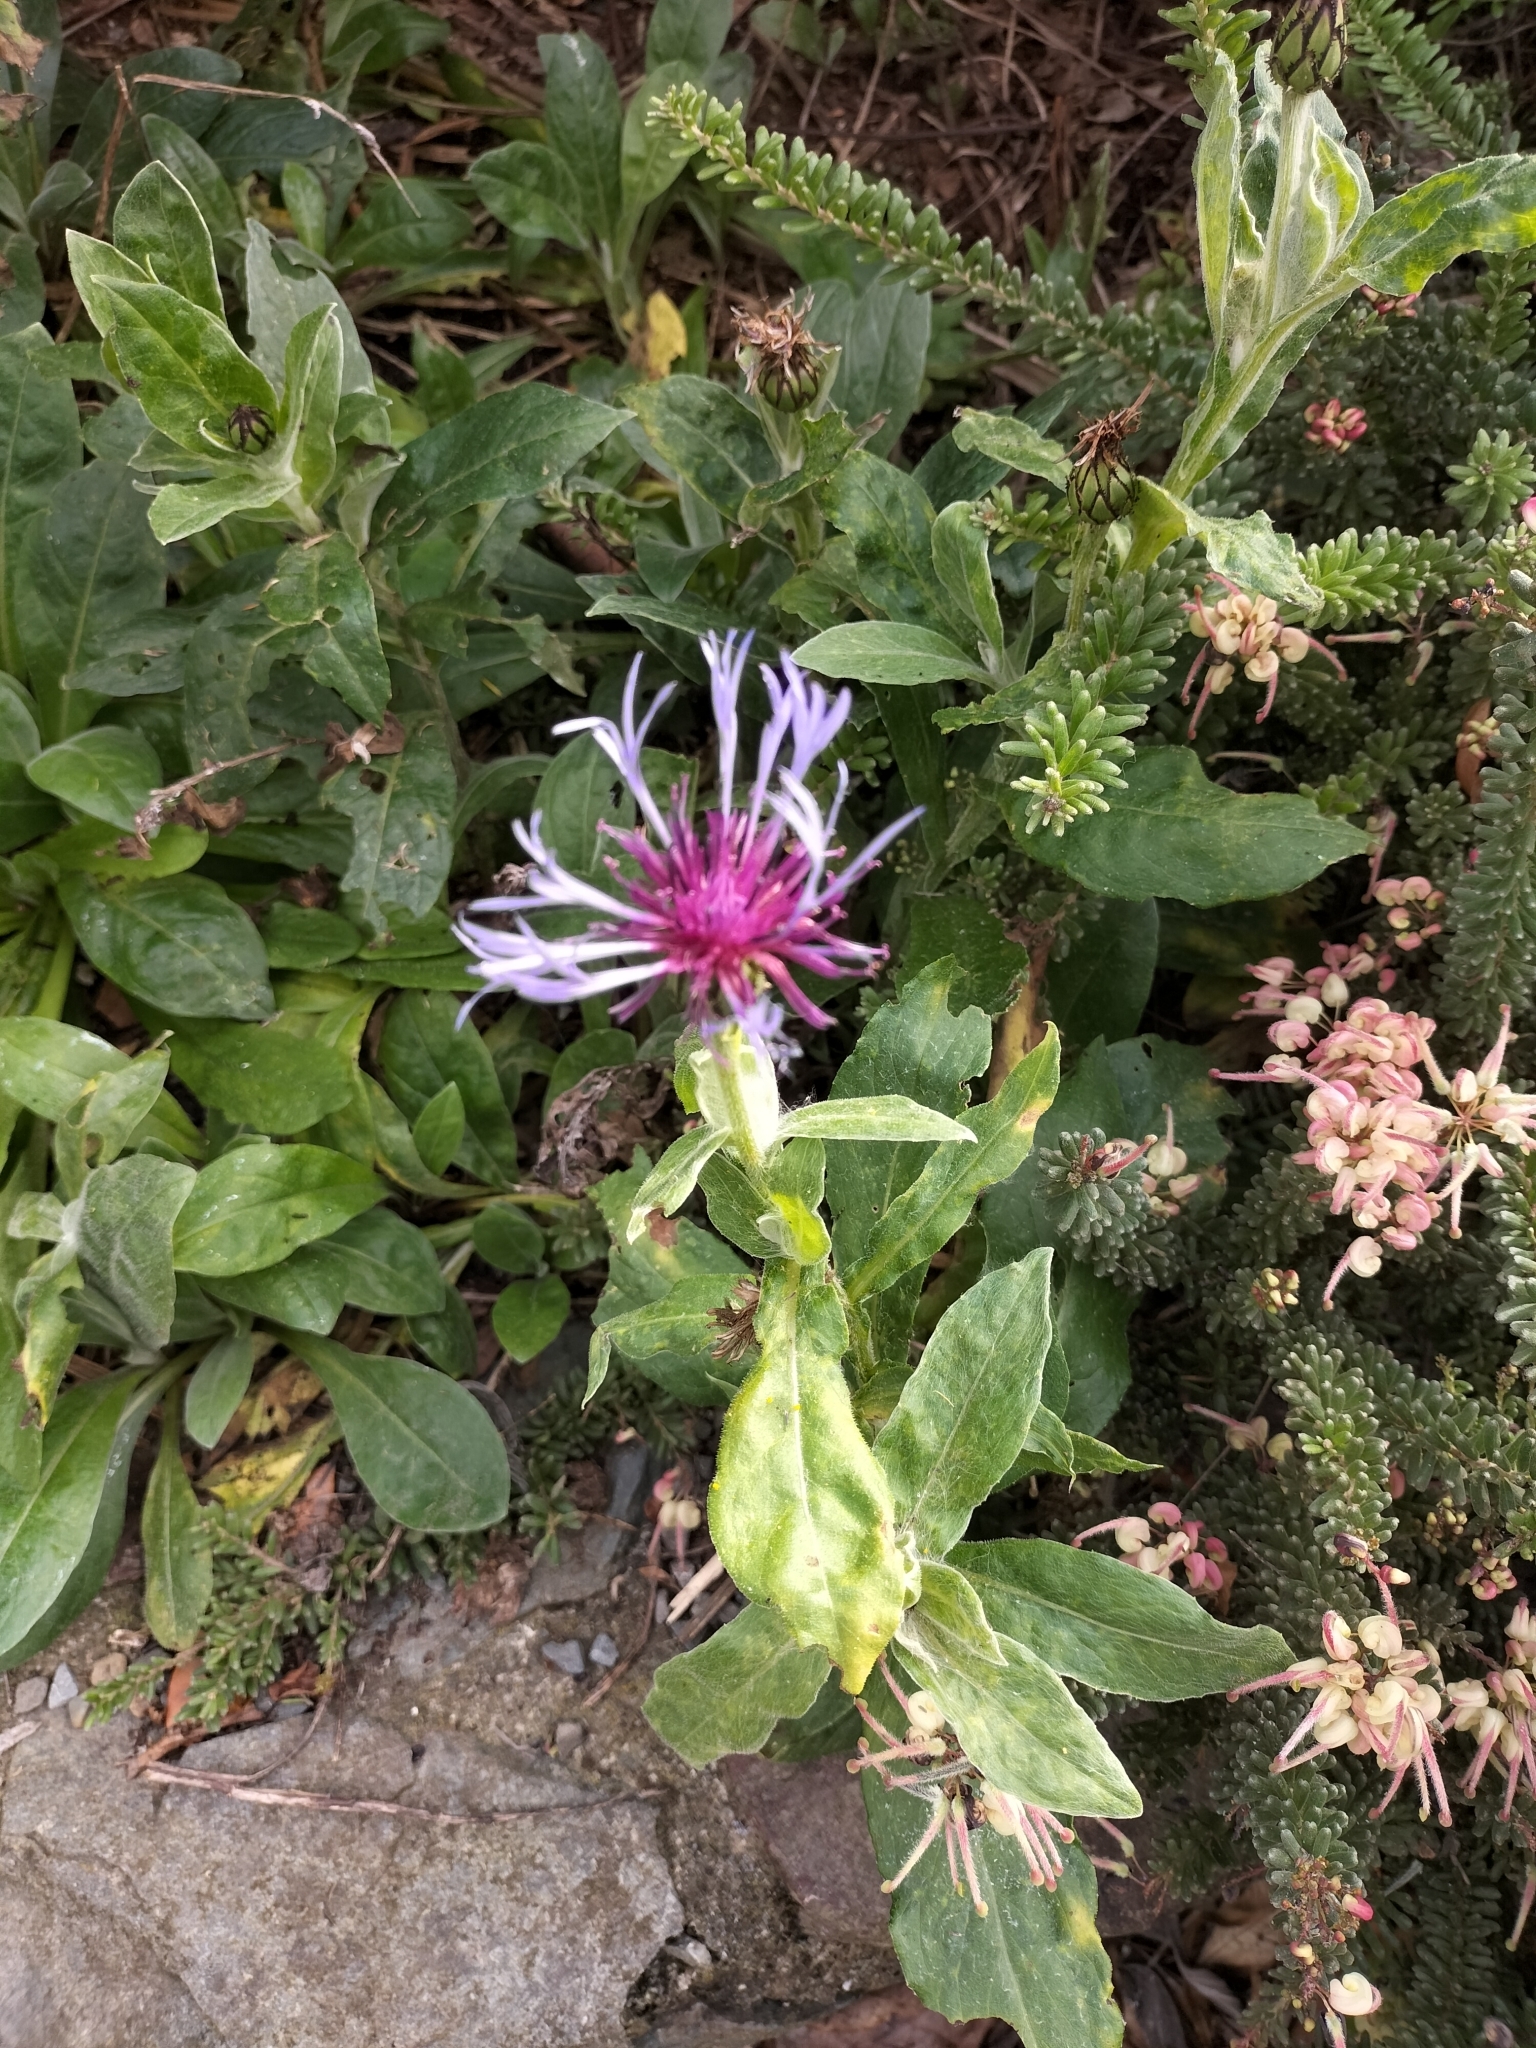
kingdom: Plantae
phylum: Tracheophyta
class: Magnoliopsida
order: Asterales
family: Asteraceae
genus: Centaurea
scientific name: Centaurea montana
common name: Perennial cornflower
